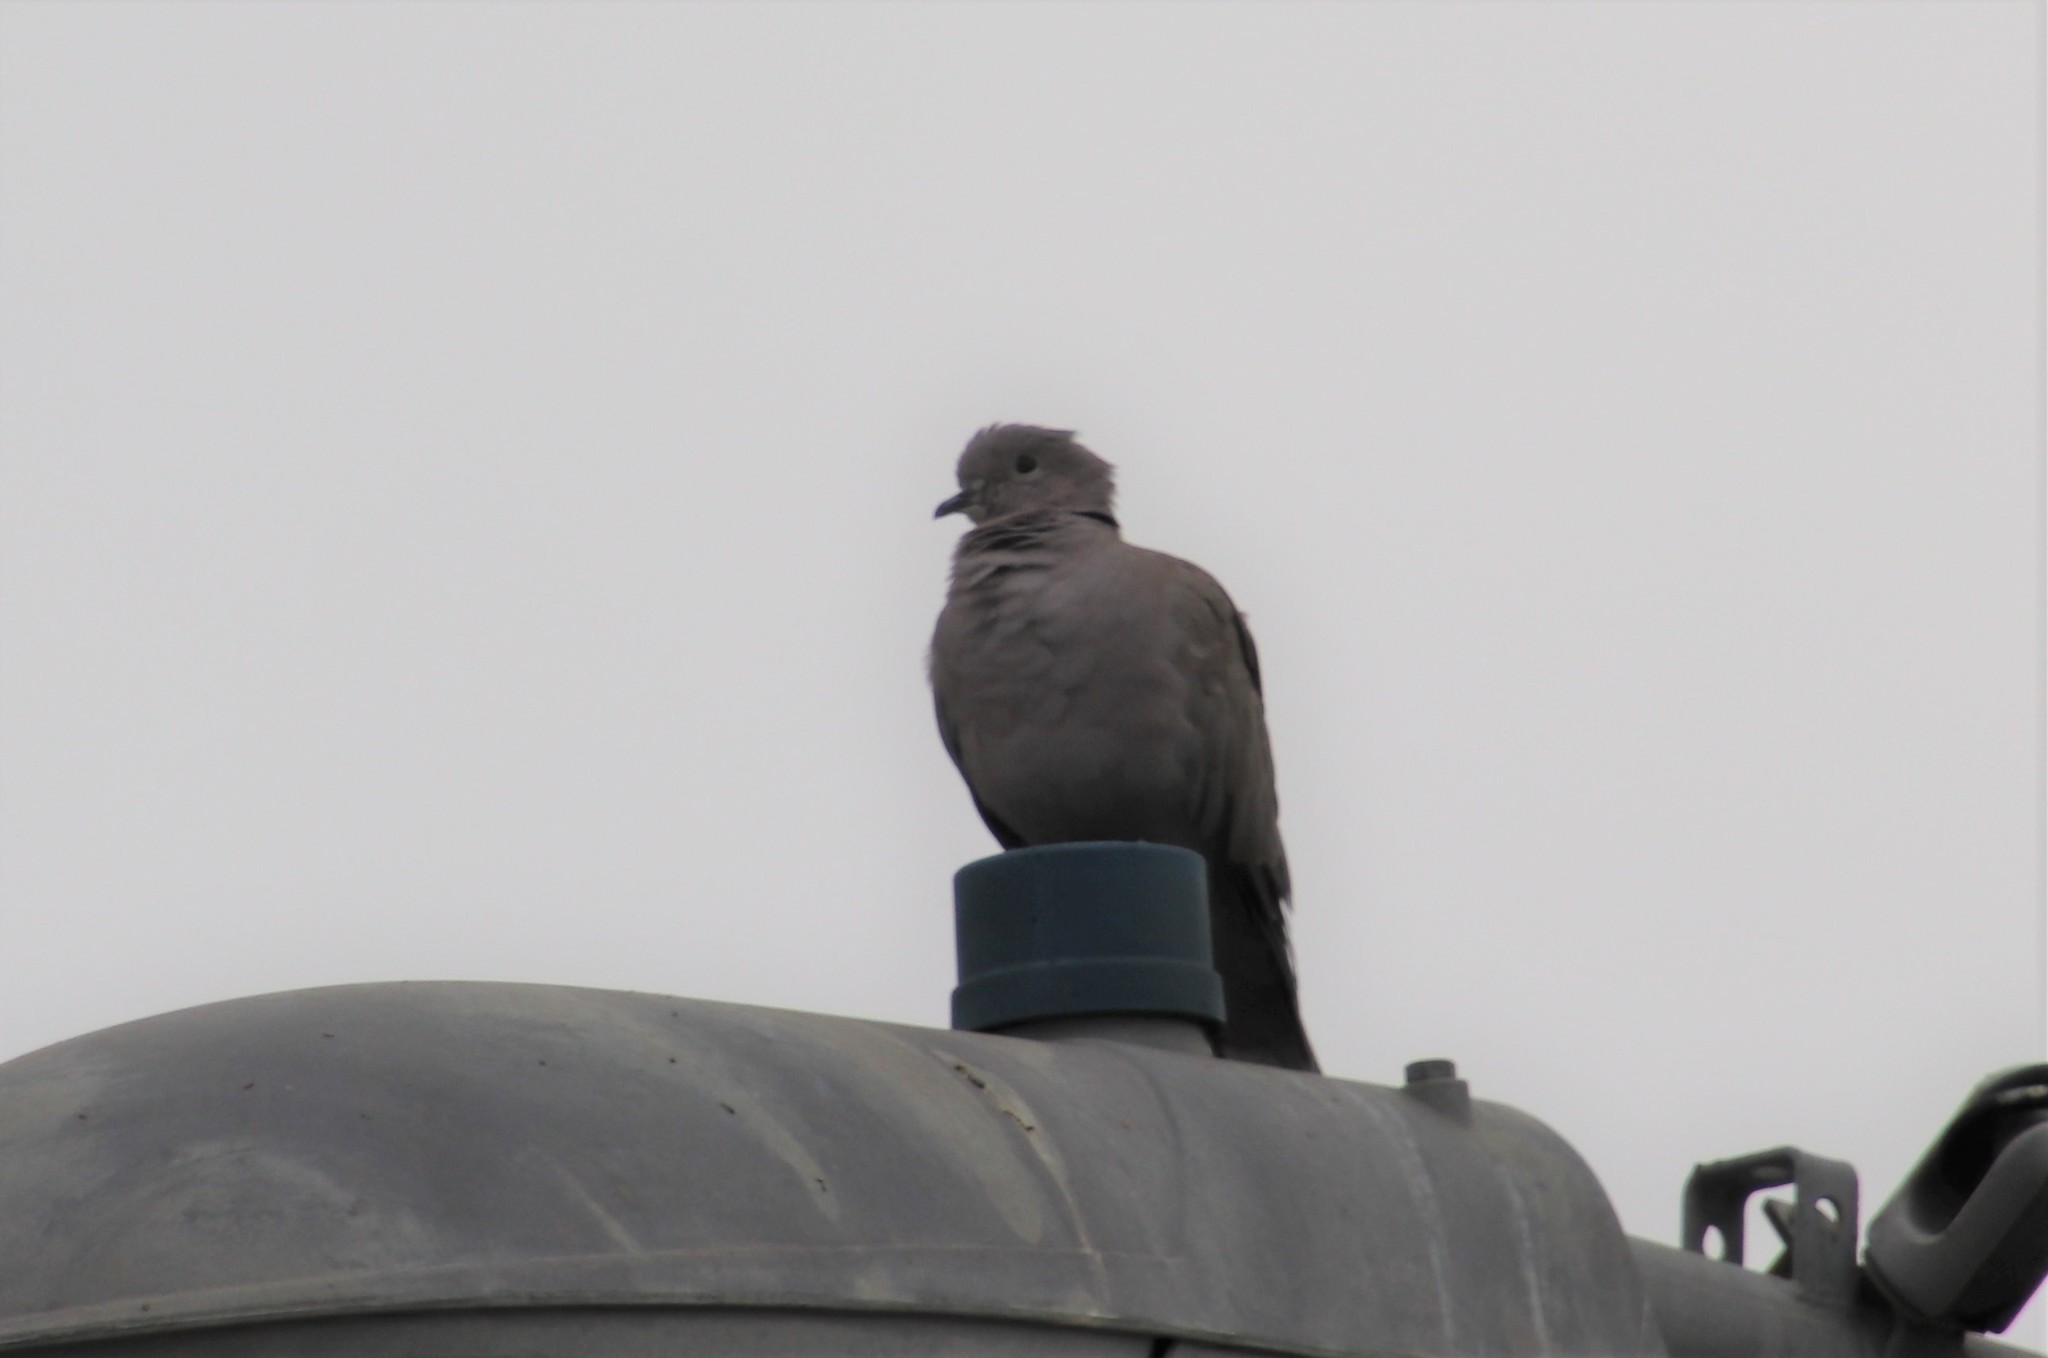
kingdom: Animalia
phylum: Chordata
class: Aves
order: Columbiformes
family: Columbidae
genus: Streptopelia
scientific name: Streptopelia decaocto
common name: Eurasian collared dove
